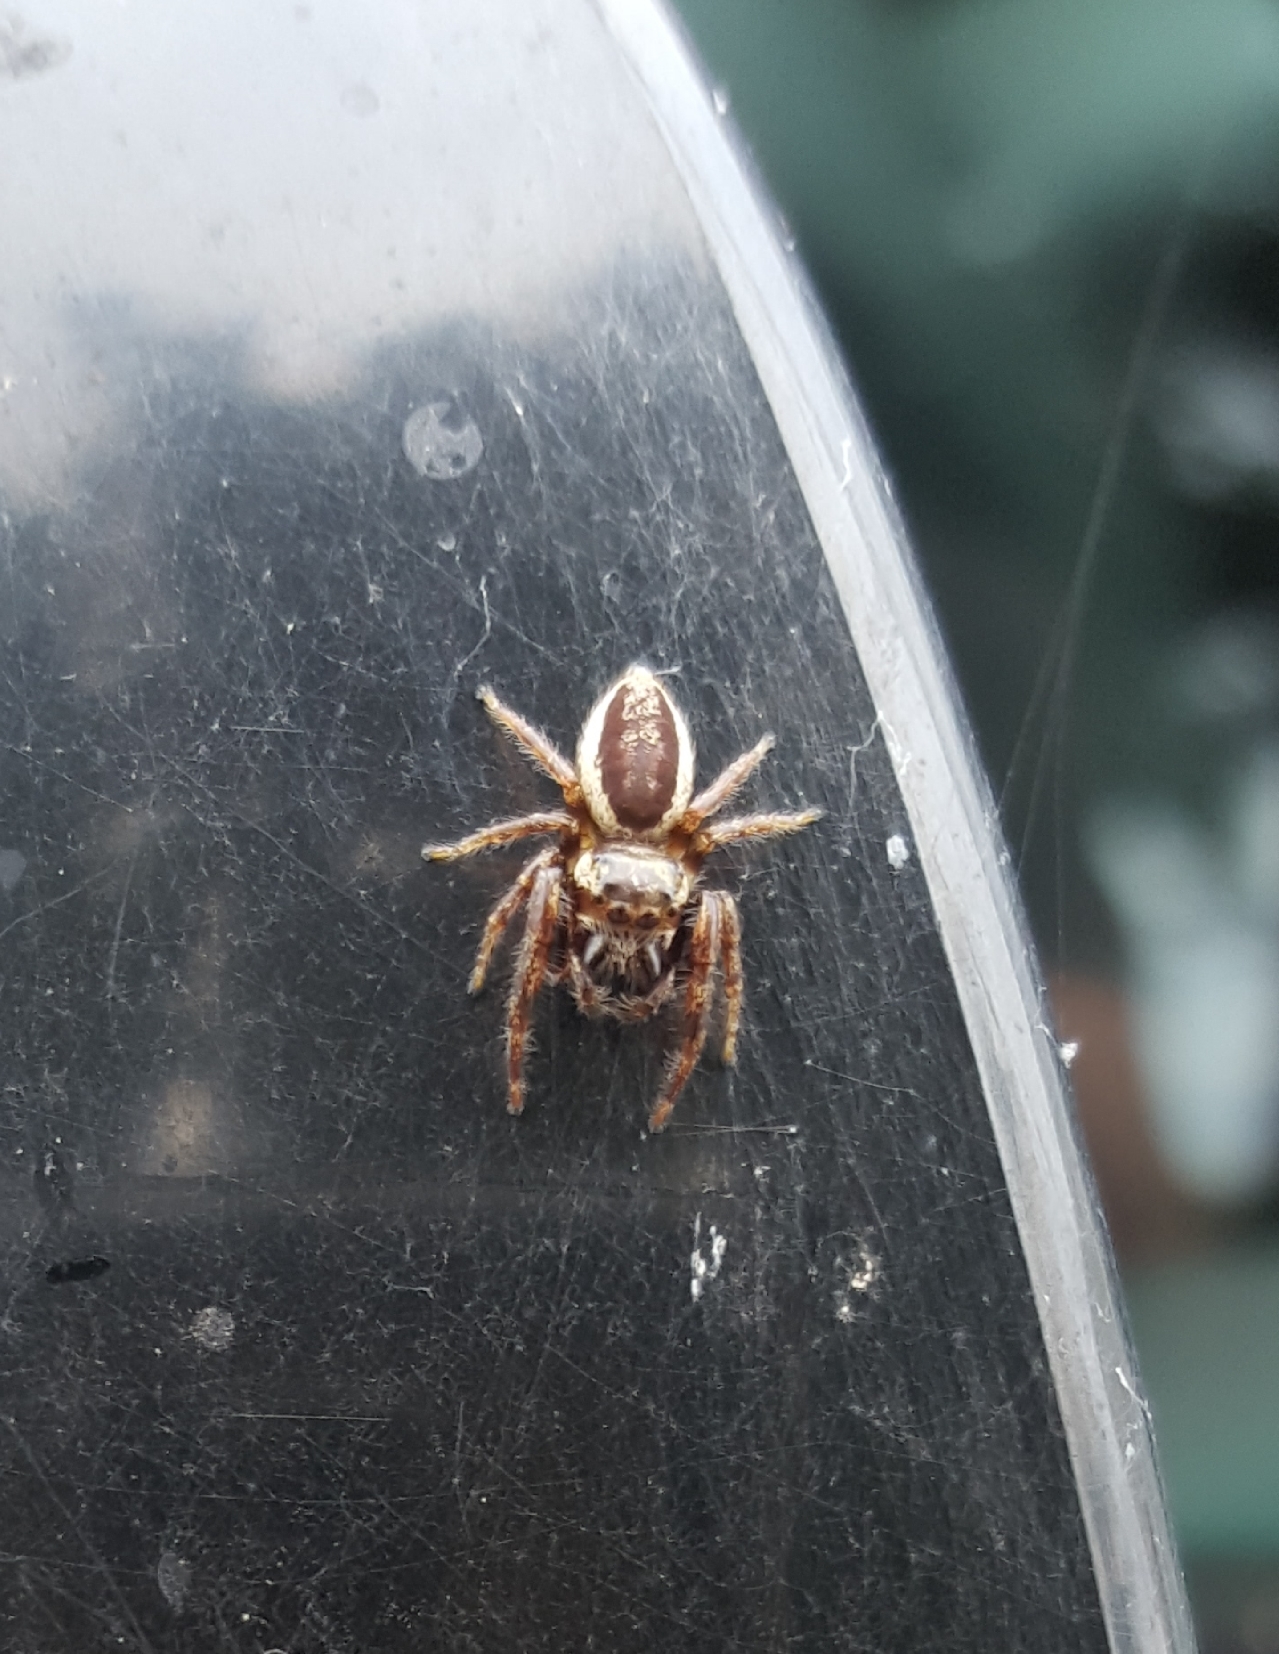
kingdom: Animalia
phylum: Arthropoda
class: Arachnida
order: Araneae
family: Salticidae
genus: Eris
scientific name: Eris flava
